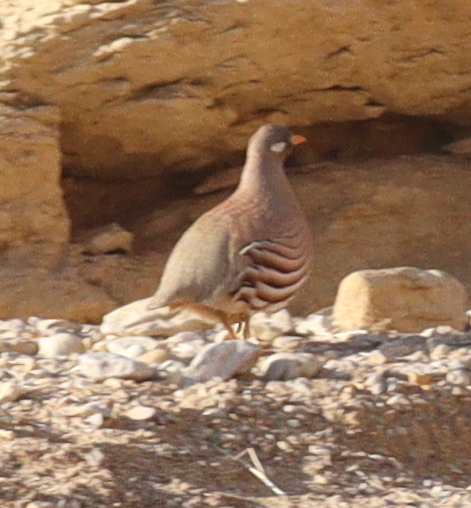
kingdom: Animalia
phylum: Chordata
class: Aves
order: Galliformes
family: Phasianidae
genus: Ammoperdix
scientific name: Ammoperdix heyi
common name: Sand partridge
